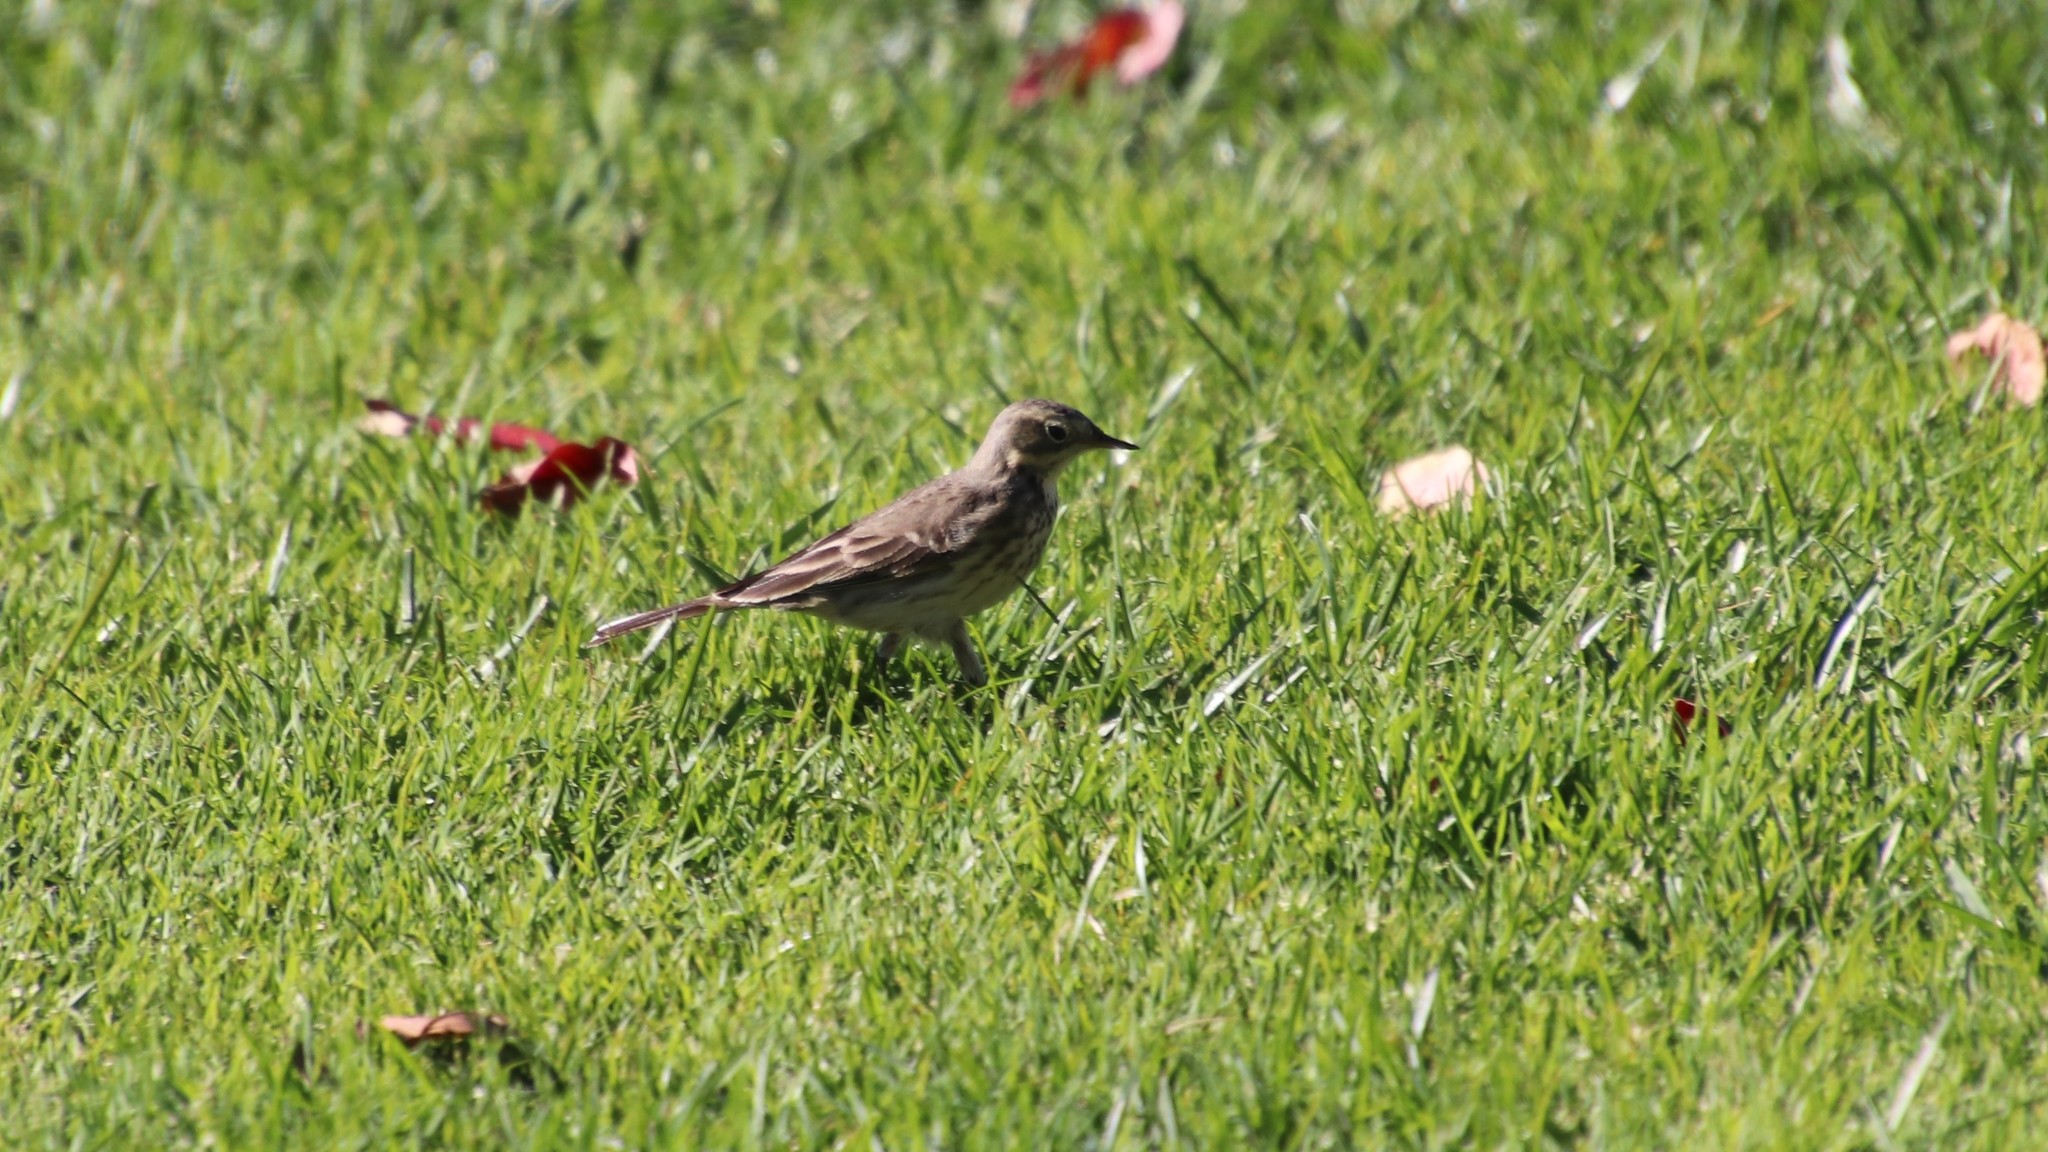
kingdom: Animalia
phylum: Chordata
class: Aves
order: Passeriformes
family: Motacillidae
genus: Anthus
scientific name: Anthus rubescens
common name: Buff-bellied pipit
